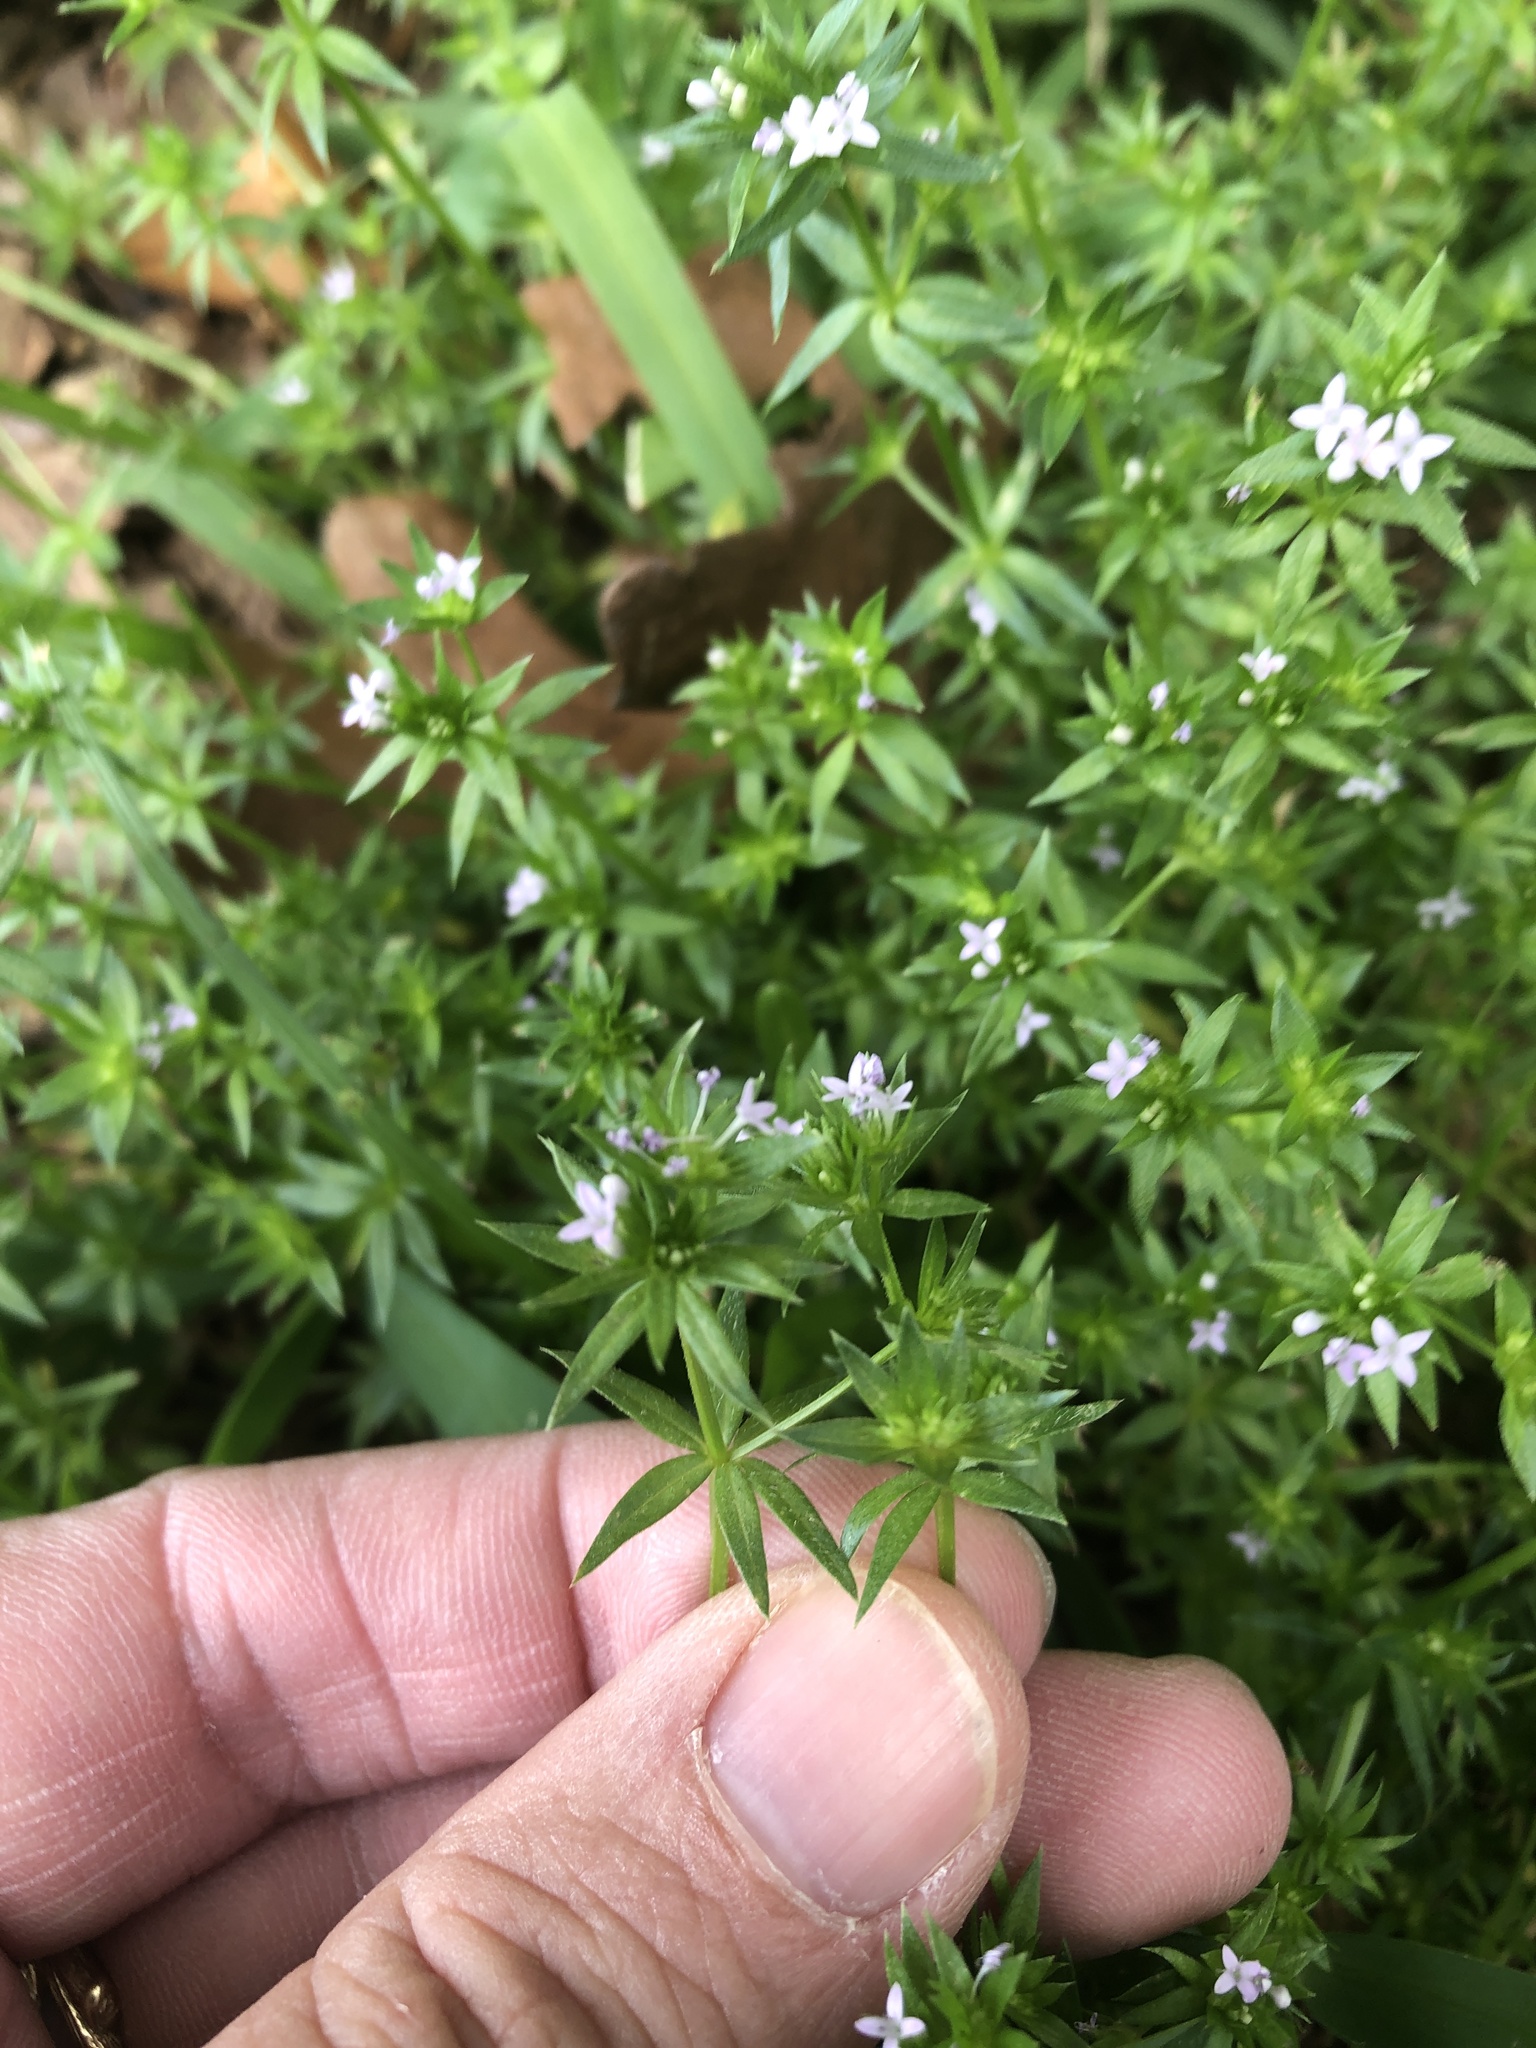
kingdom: Plantae
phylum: Tracheophyta
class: Magnoliopsida
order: Gentianales
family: Rubiaceae
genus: Sherardia
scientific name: Sherardia arvensis
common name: Field madder
